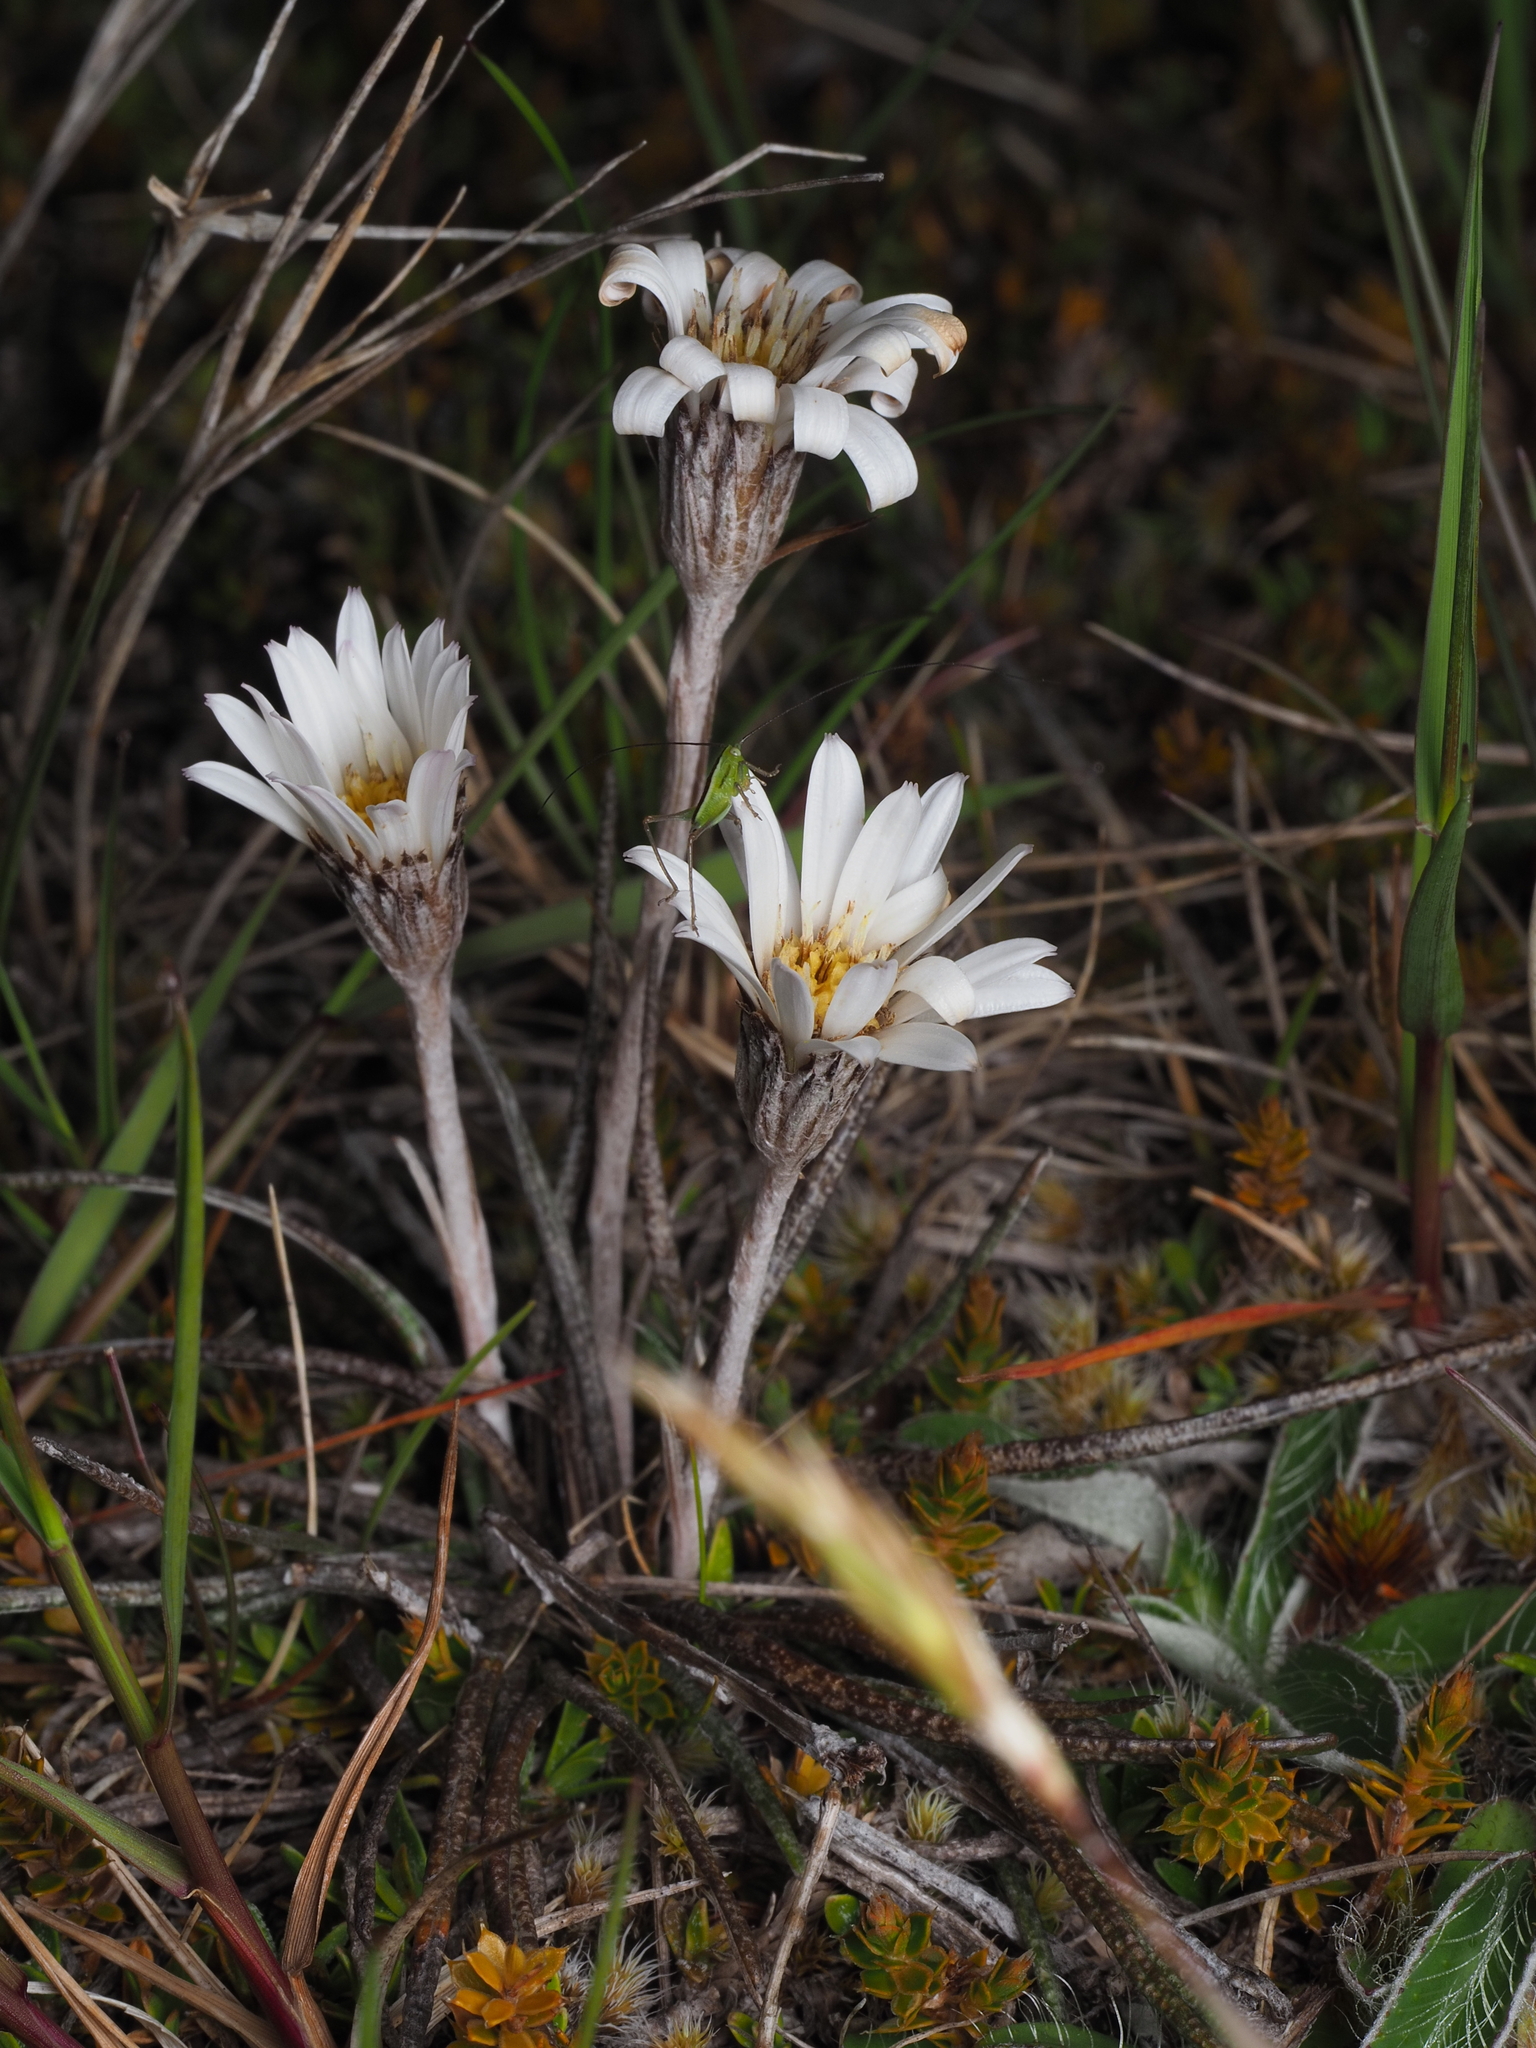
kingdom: Plantae
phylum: Tracheophyta
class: Magnoliopsida
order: Asterales
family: Asteraceae
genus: Celmisia
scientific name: Celmisia gracilenta
